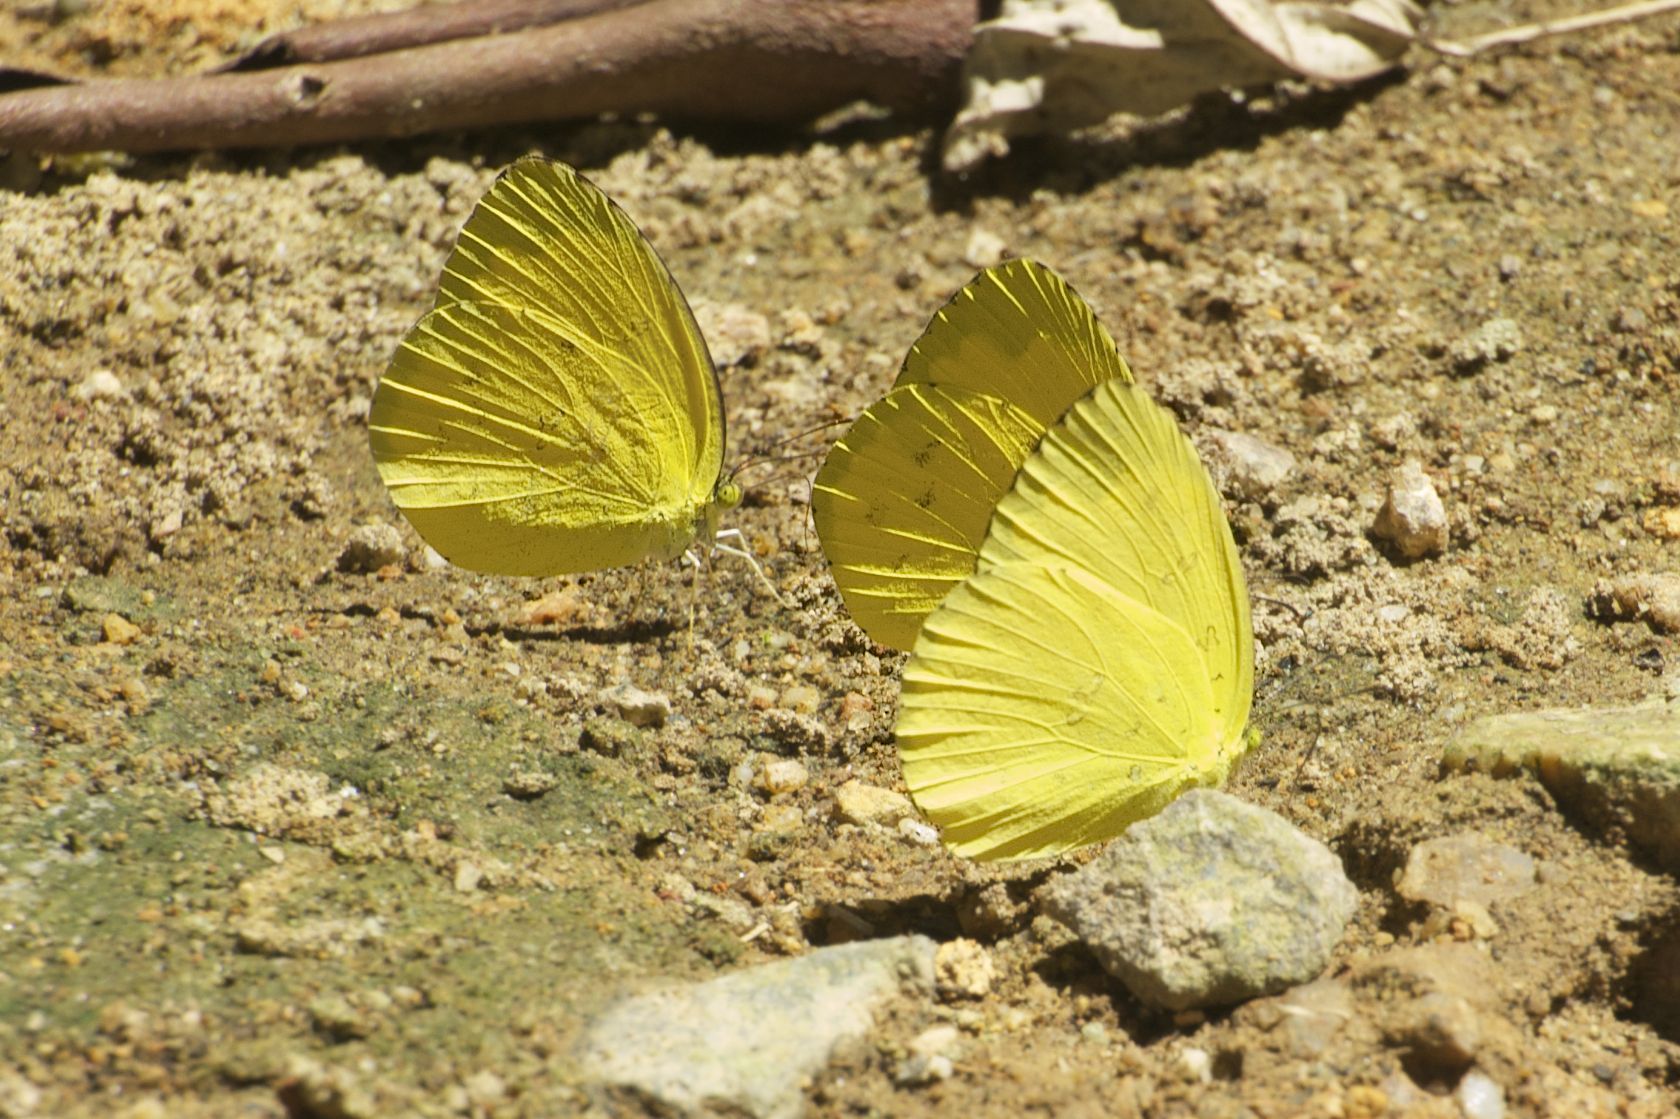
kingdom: Animalia
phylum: Arthropoda
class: Insecta
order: Lepidoptera
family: Pieridae
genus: Eurema
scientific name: Eurema hecabe
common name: Pale grass yellow
